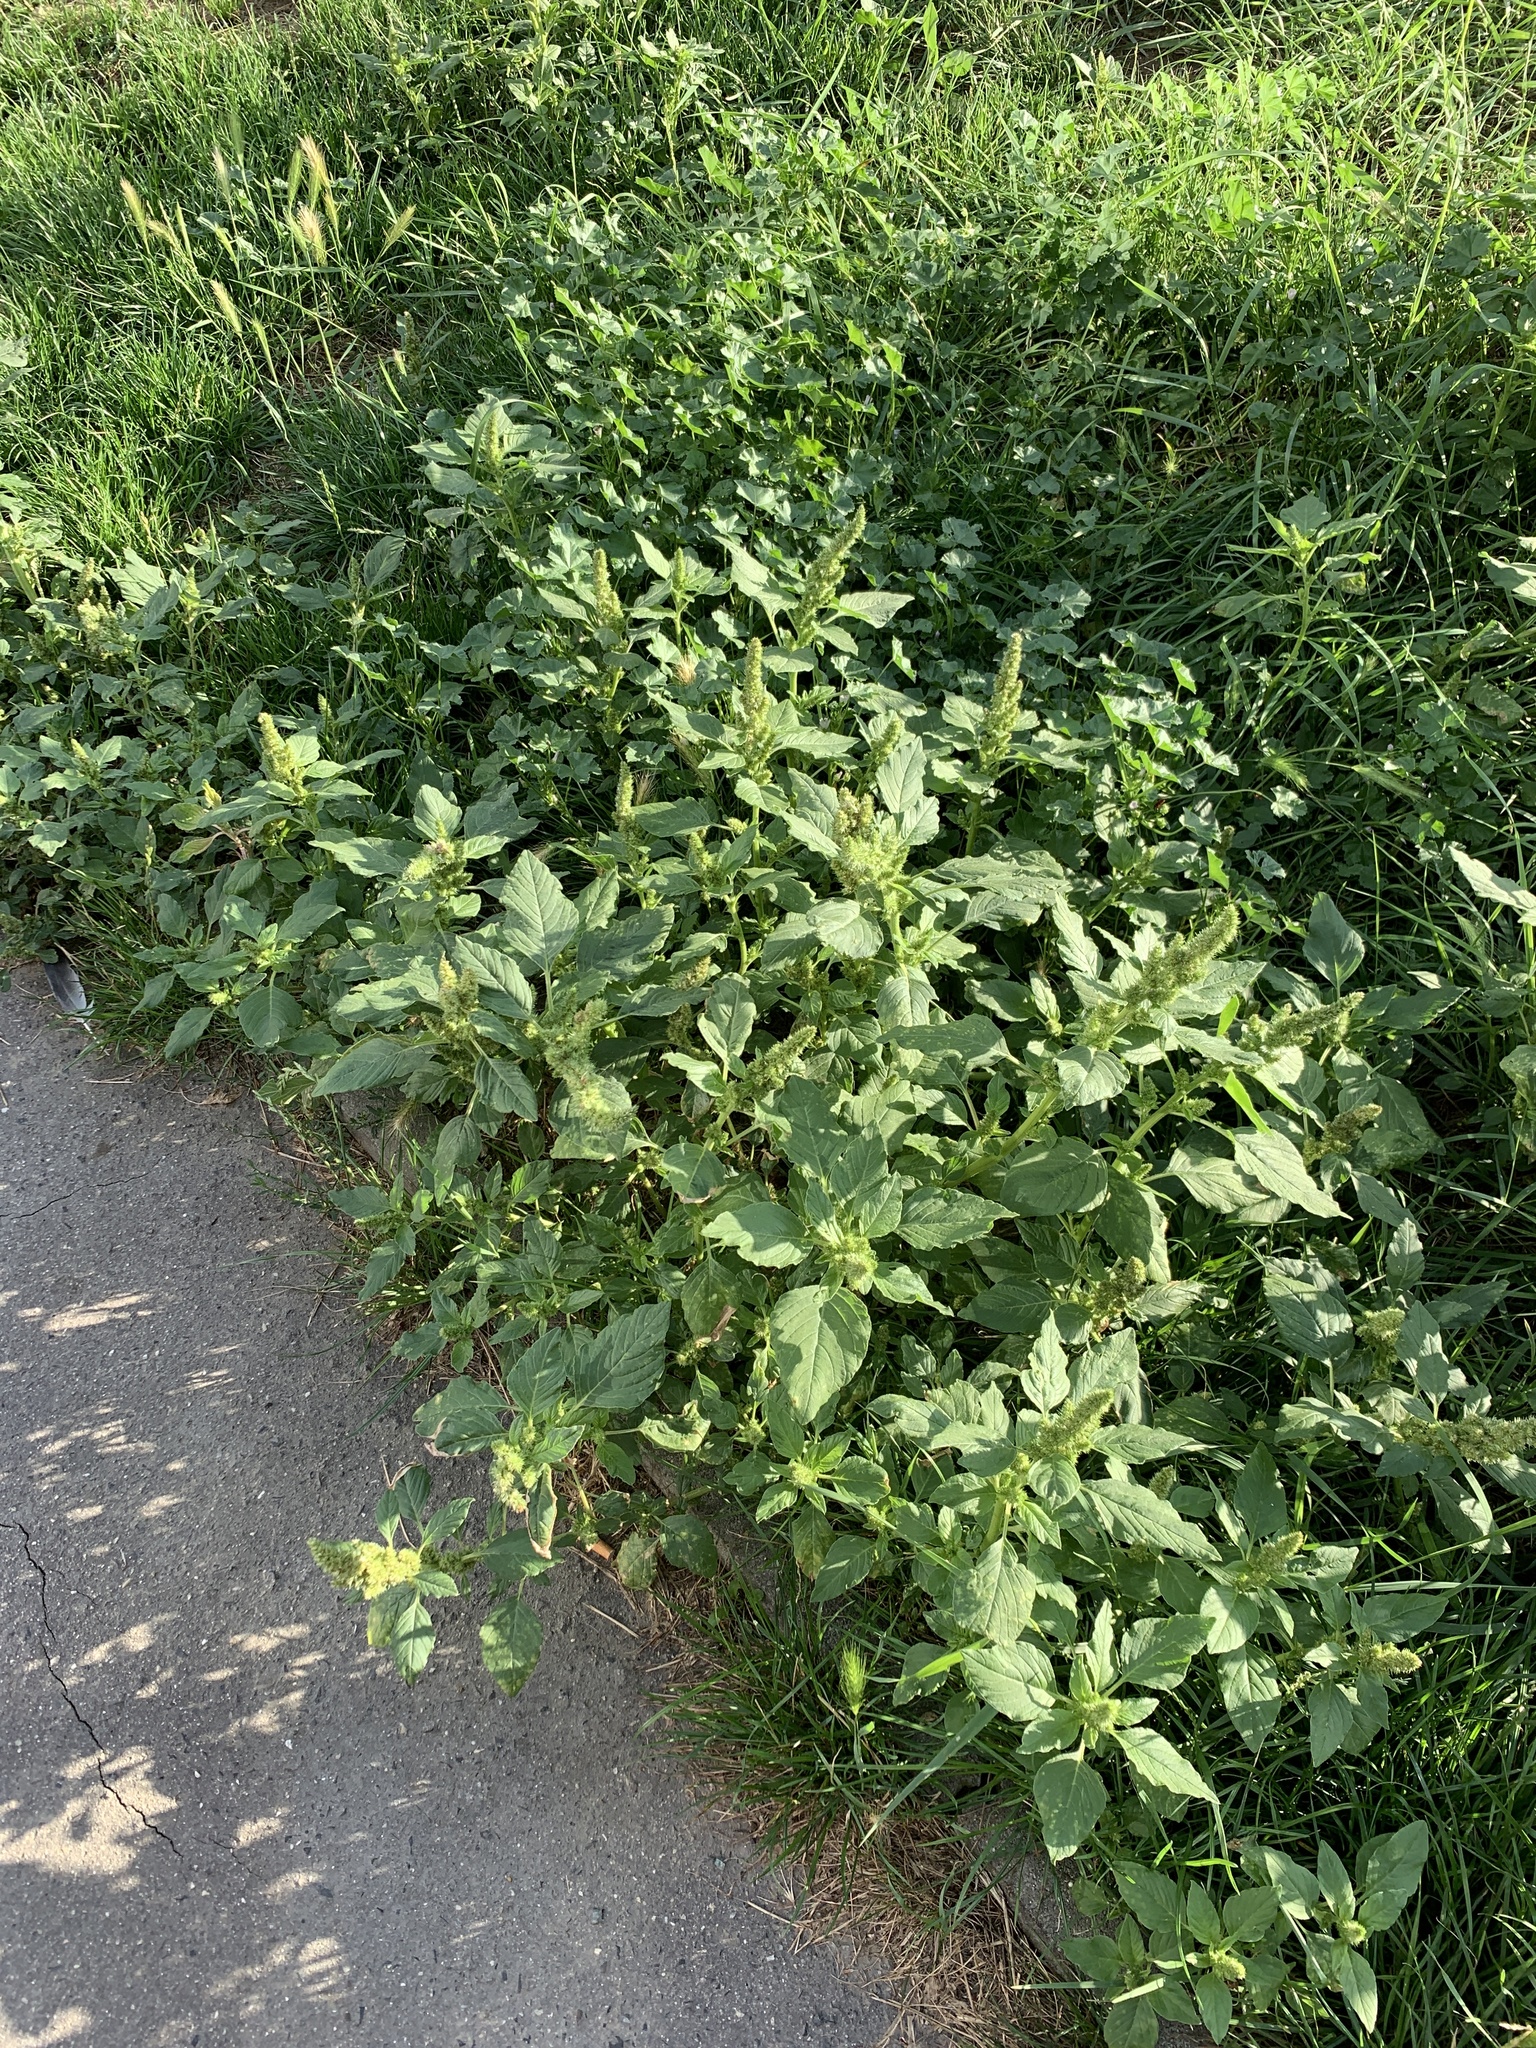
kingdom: Plantae
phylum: Tracheophyta
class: Magnoliopsida
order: Caryophyllales
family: Amaranthaceae
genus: Amaranthus
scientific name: Amaranthus retroflexus
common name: Redroot amaranth
